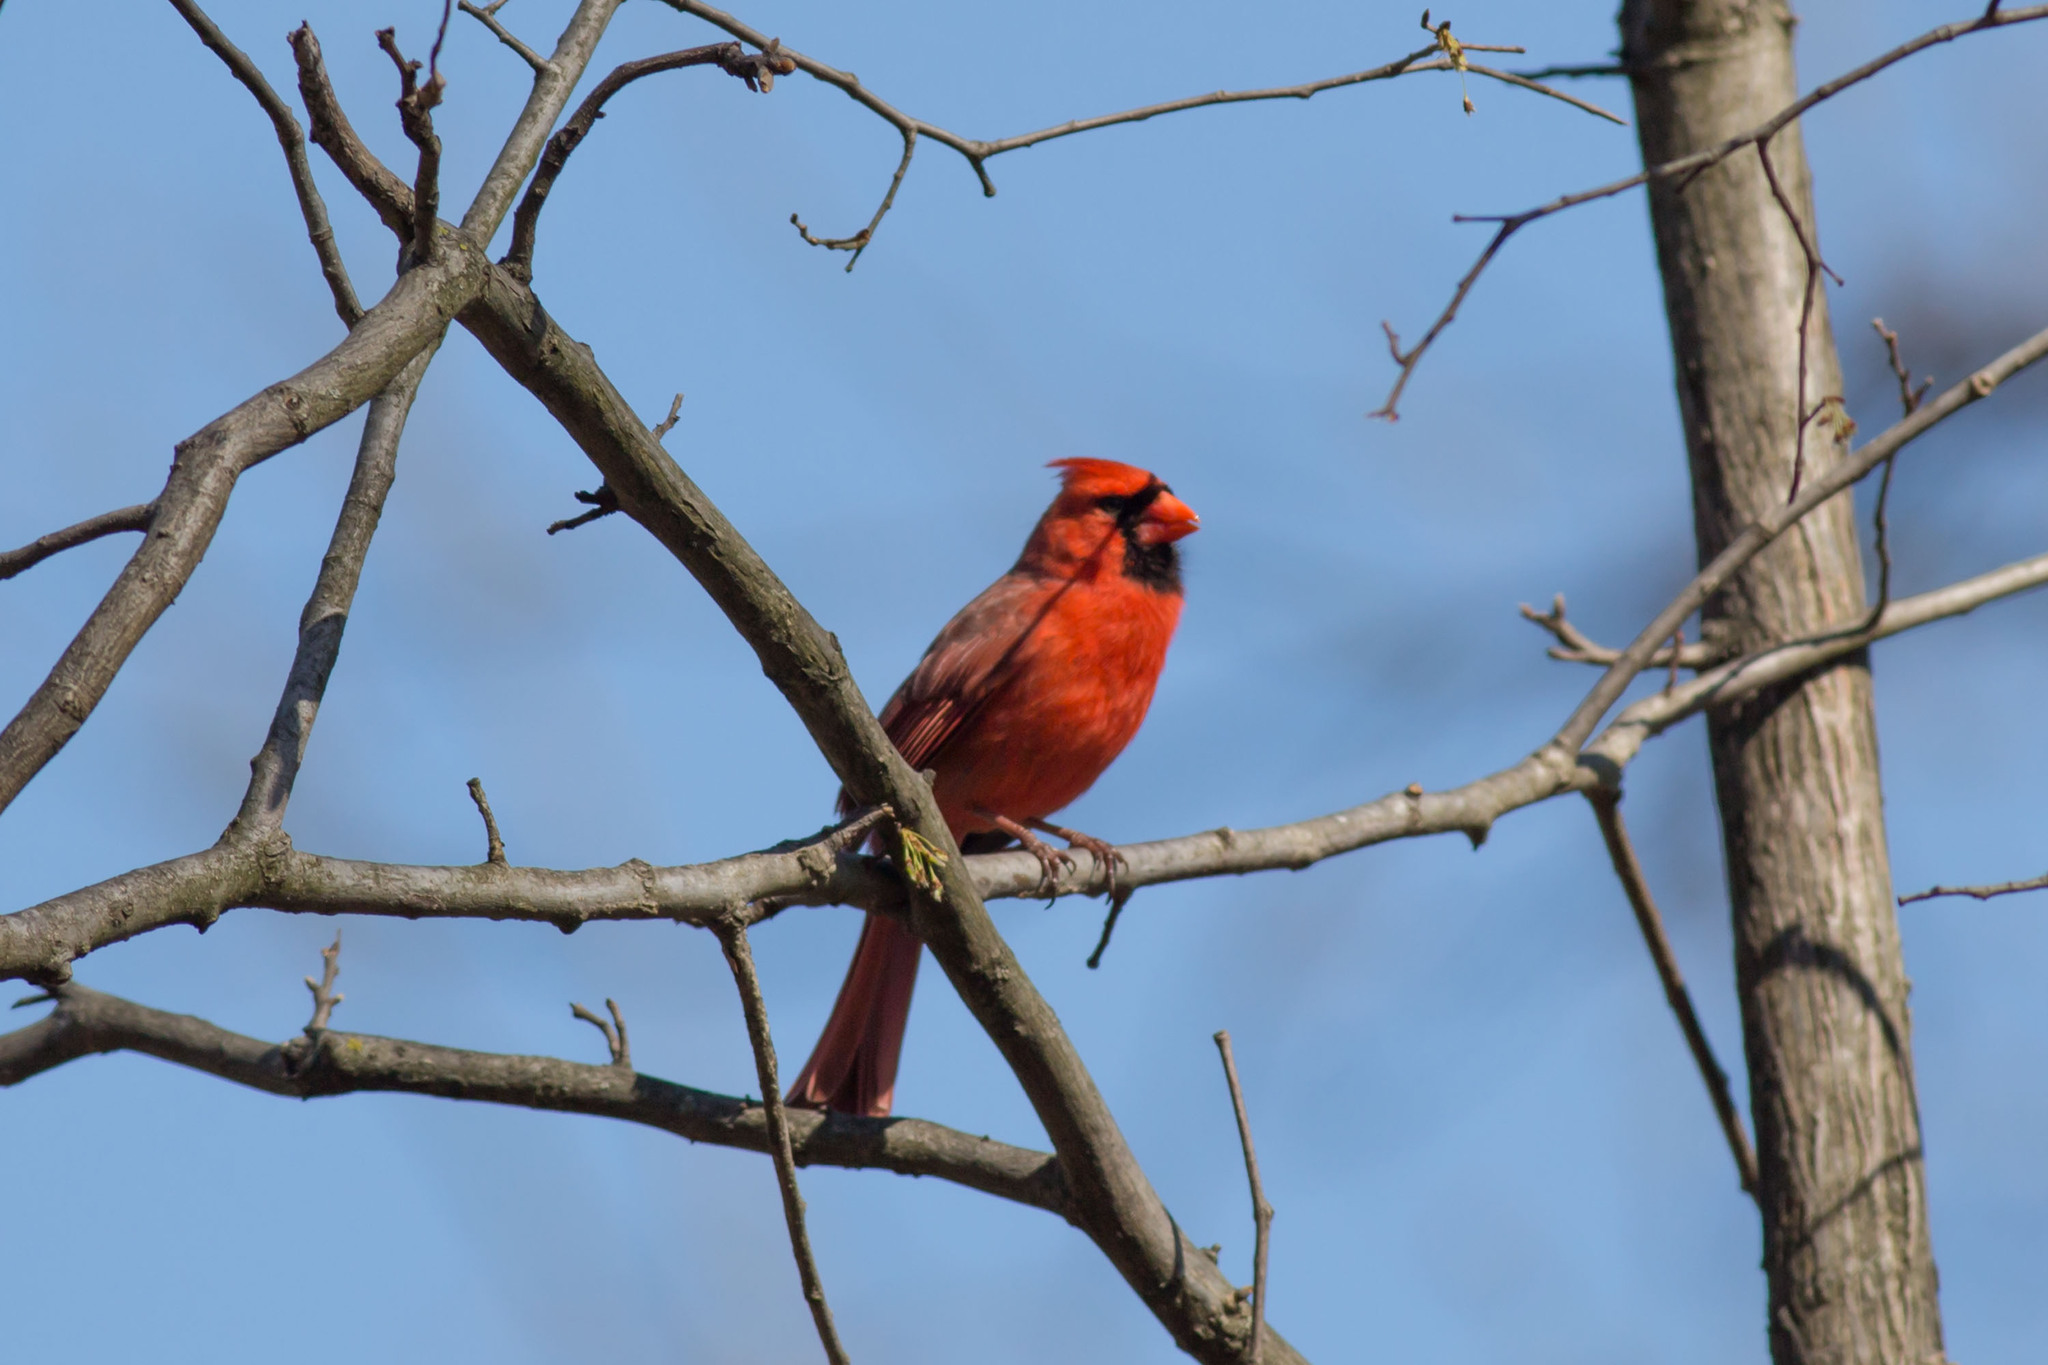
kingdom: Animalia
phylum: Chordata
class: Aves
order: Passeriformes
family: Cardinalidae
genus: Cardinalis
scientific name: Cardinalis cardinalis
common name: Northern cardinal
